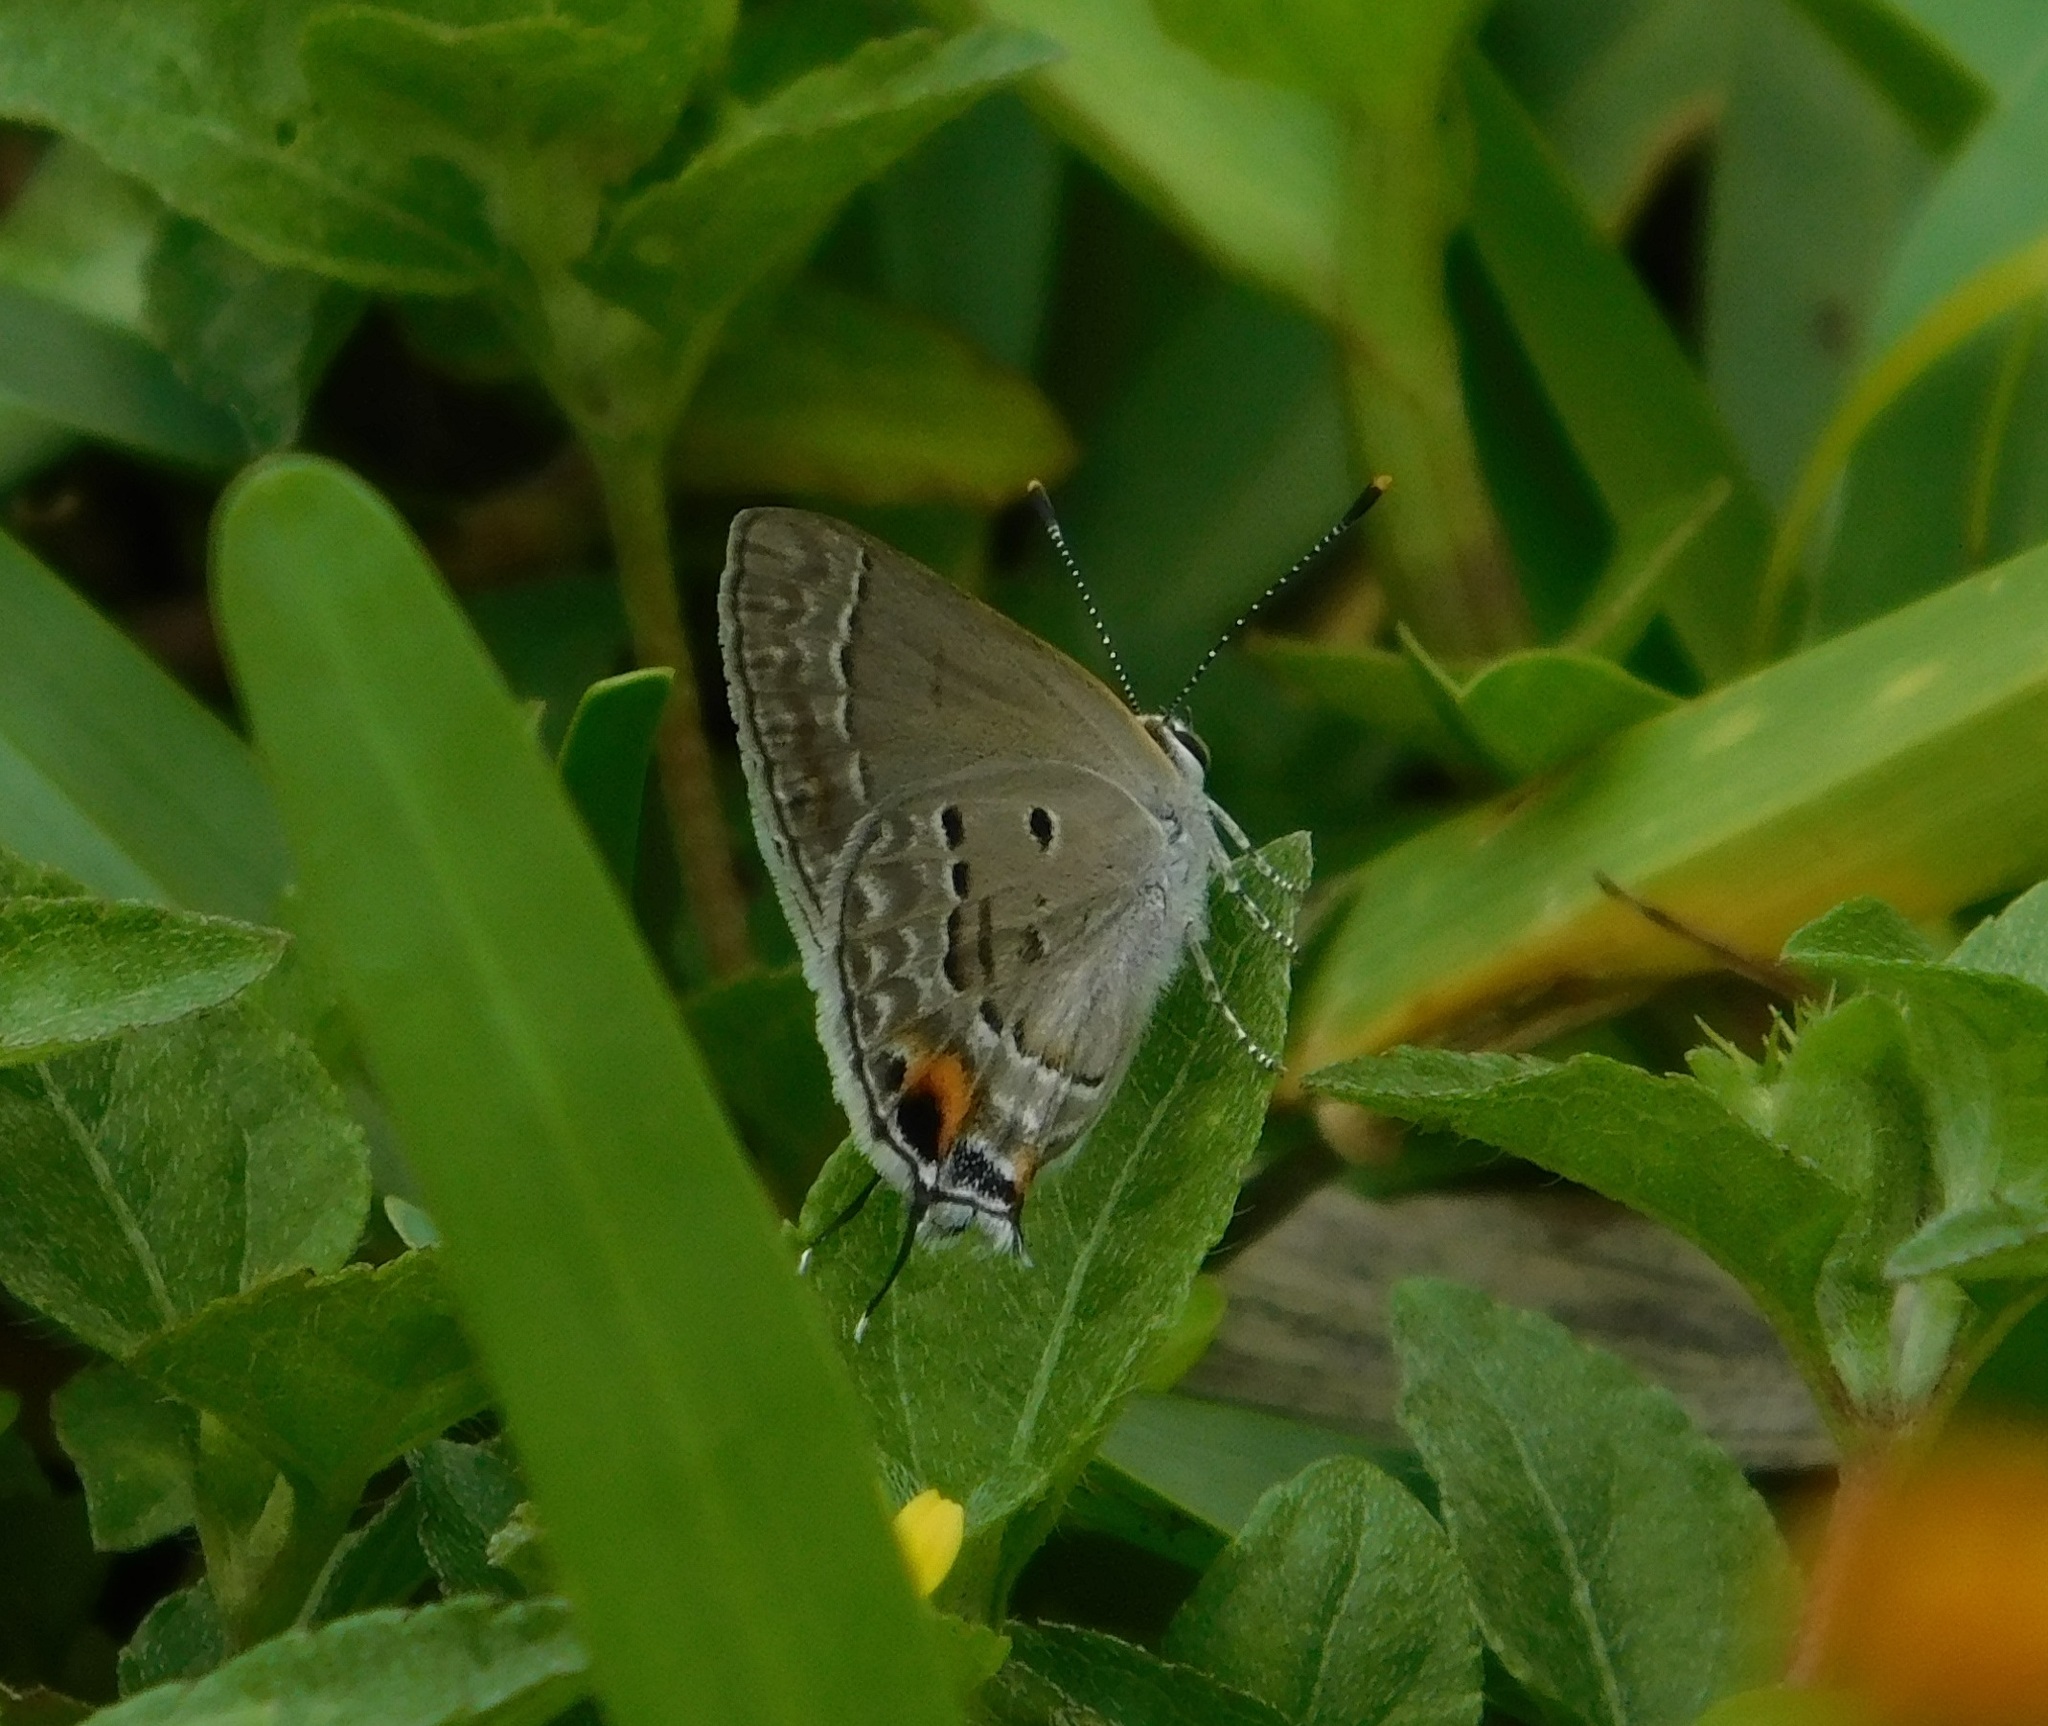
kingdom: Animalia
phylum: Arthropoda
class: Insecta
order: Lepidoptera
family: Lycaenidae
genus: Callicista
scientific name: Callicista columella
